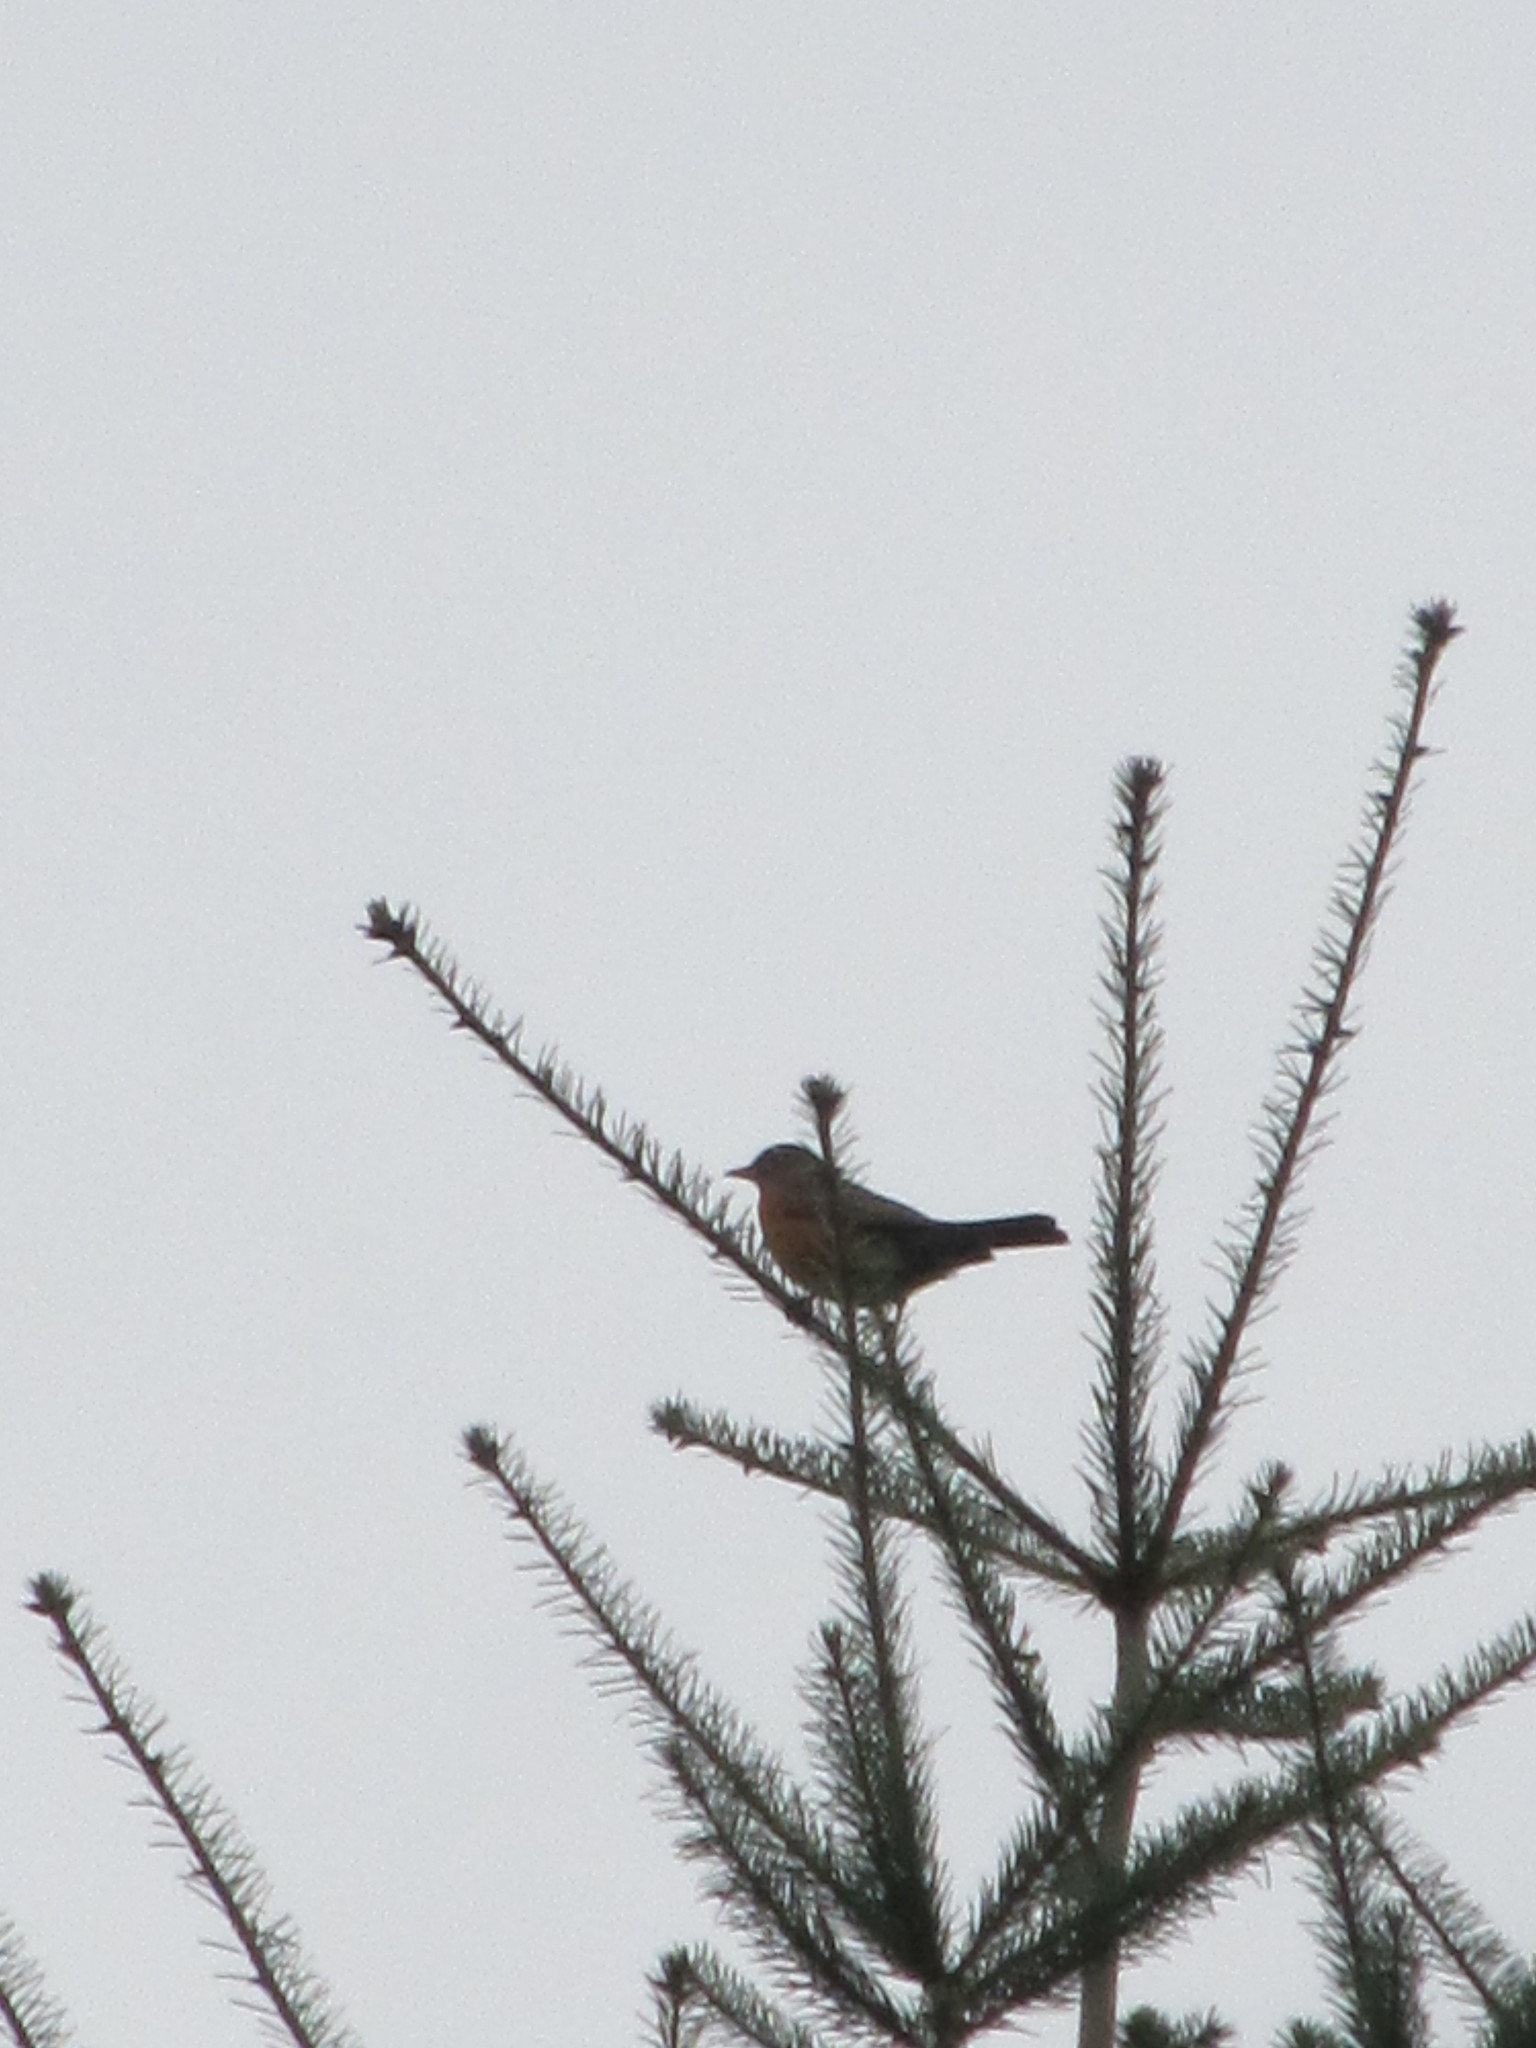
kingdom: Animalia
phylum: Chordata
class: Aves
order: Passeriformes
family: Turdidae
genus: Turdus
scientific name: Turdus migratorius
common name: American robin
